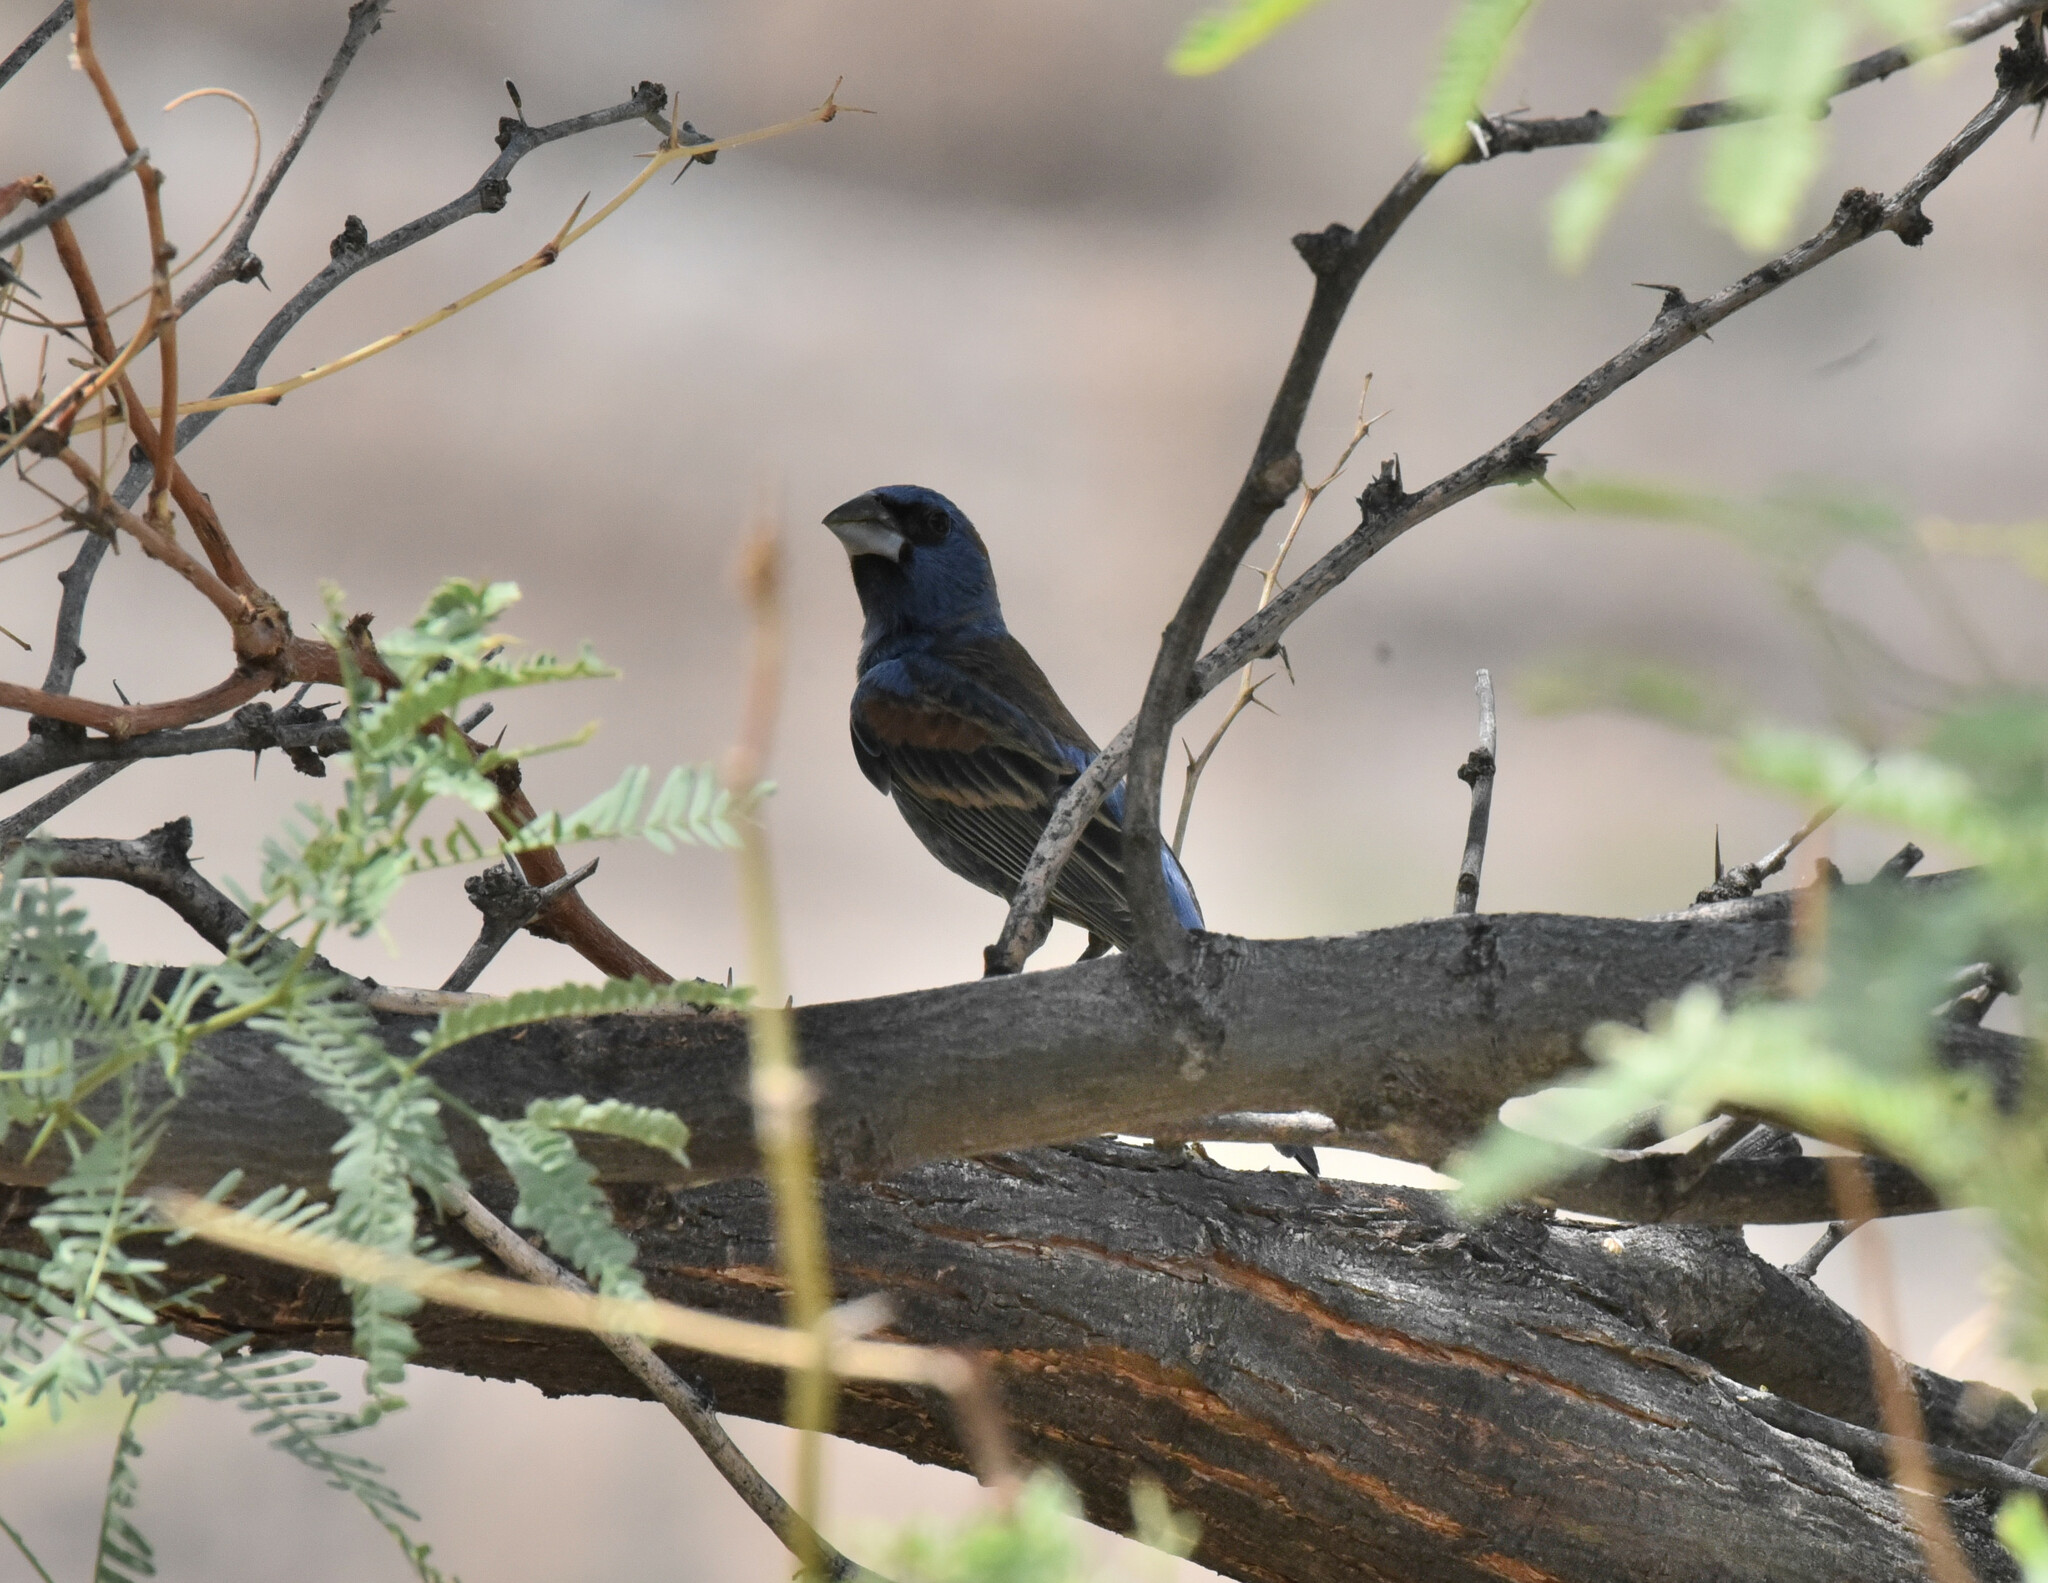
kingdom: Animalia
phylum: Chordata
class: Aves
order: Passeriformes
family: Cardinalidae
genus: Passerina
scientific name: Passerina caerulea
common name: Blue grosbeak
